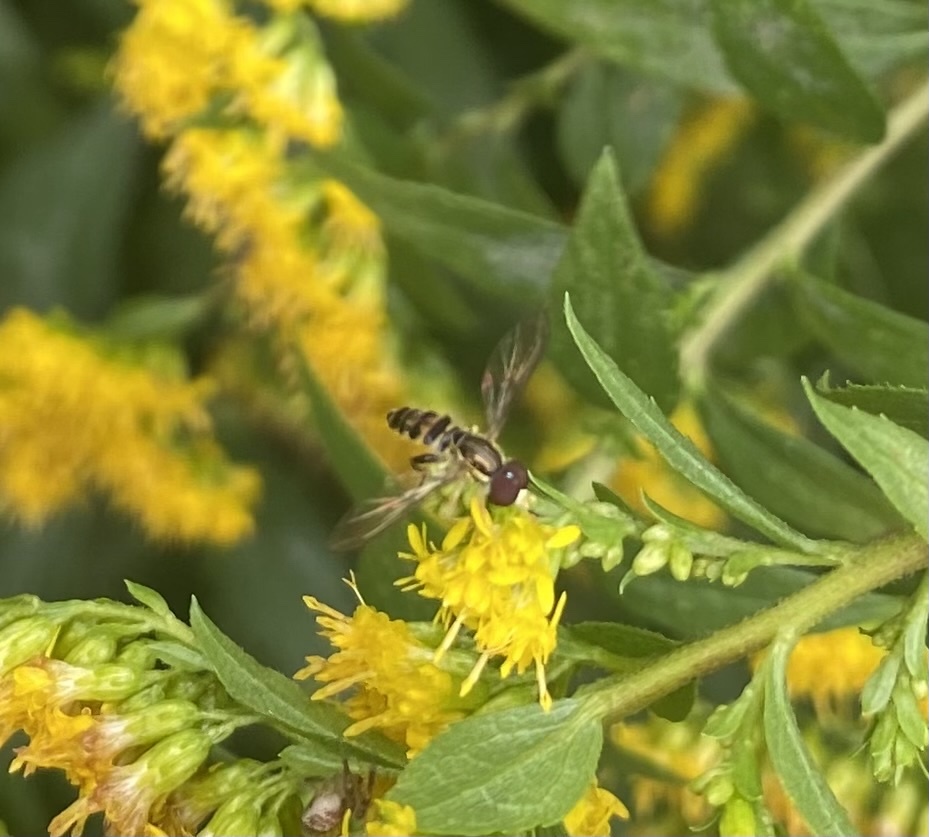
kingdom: Animalia
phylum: Arthropoda
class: Insecta
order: Diptera
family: Syrphidae
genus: Toxomerus
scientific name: Toxomerus geminatus
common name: Eastern calligrapher
